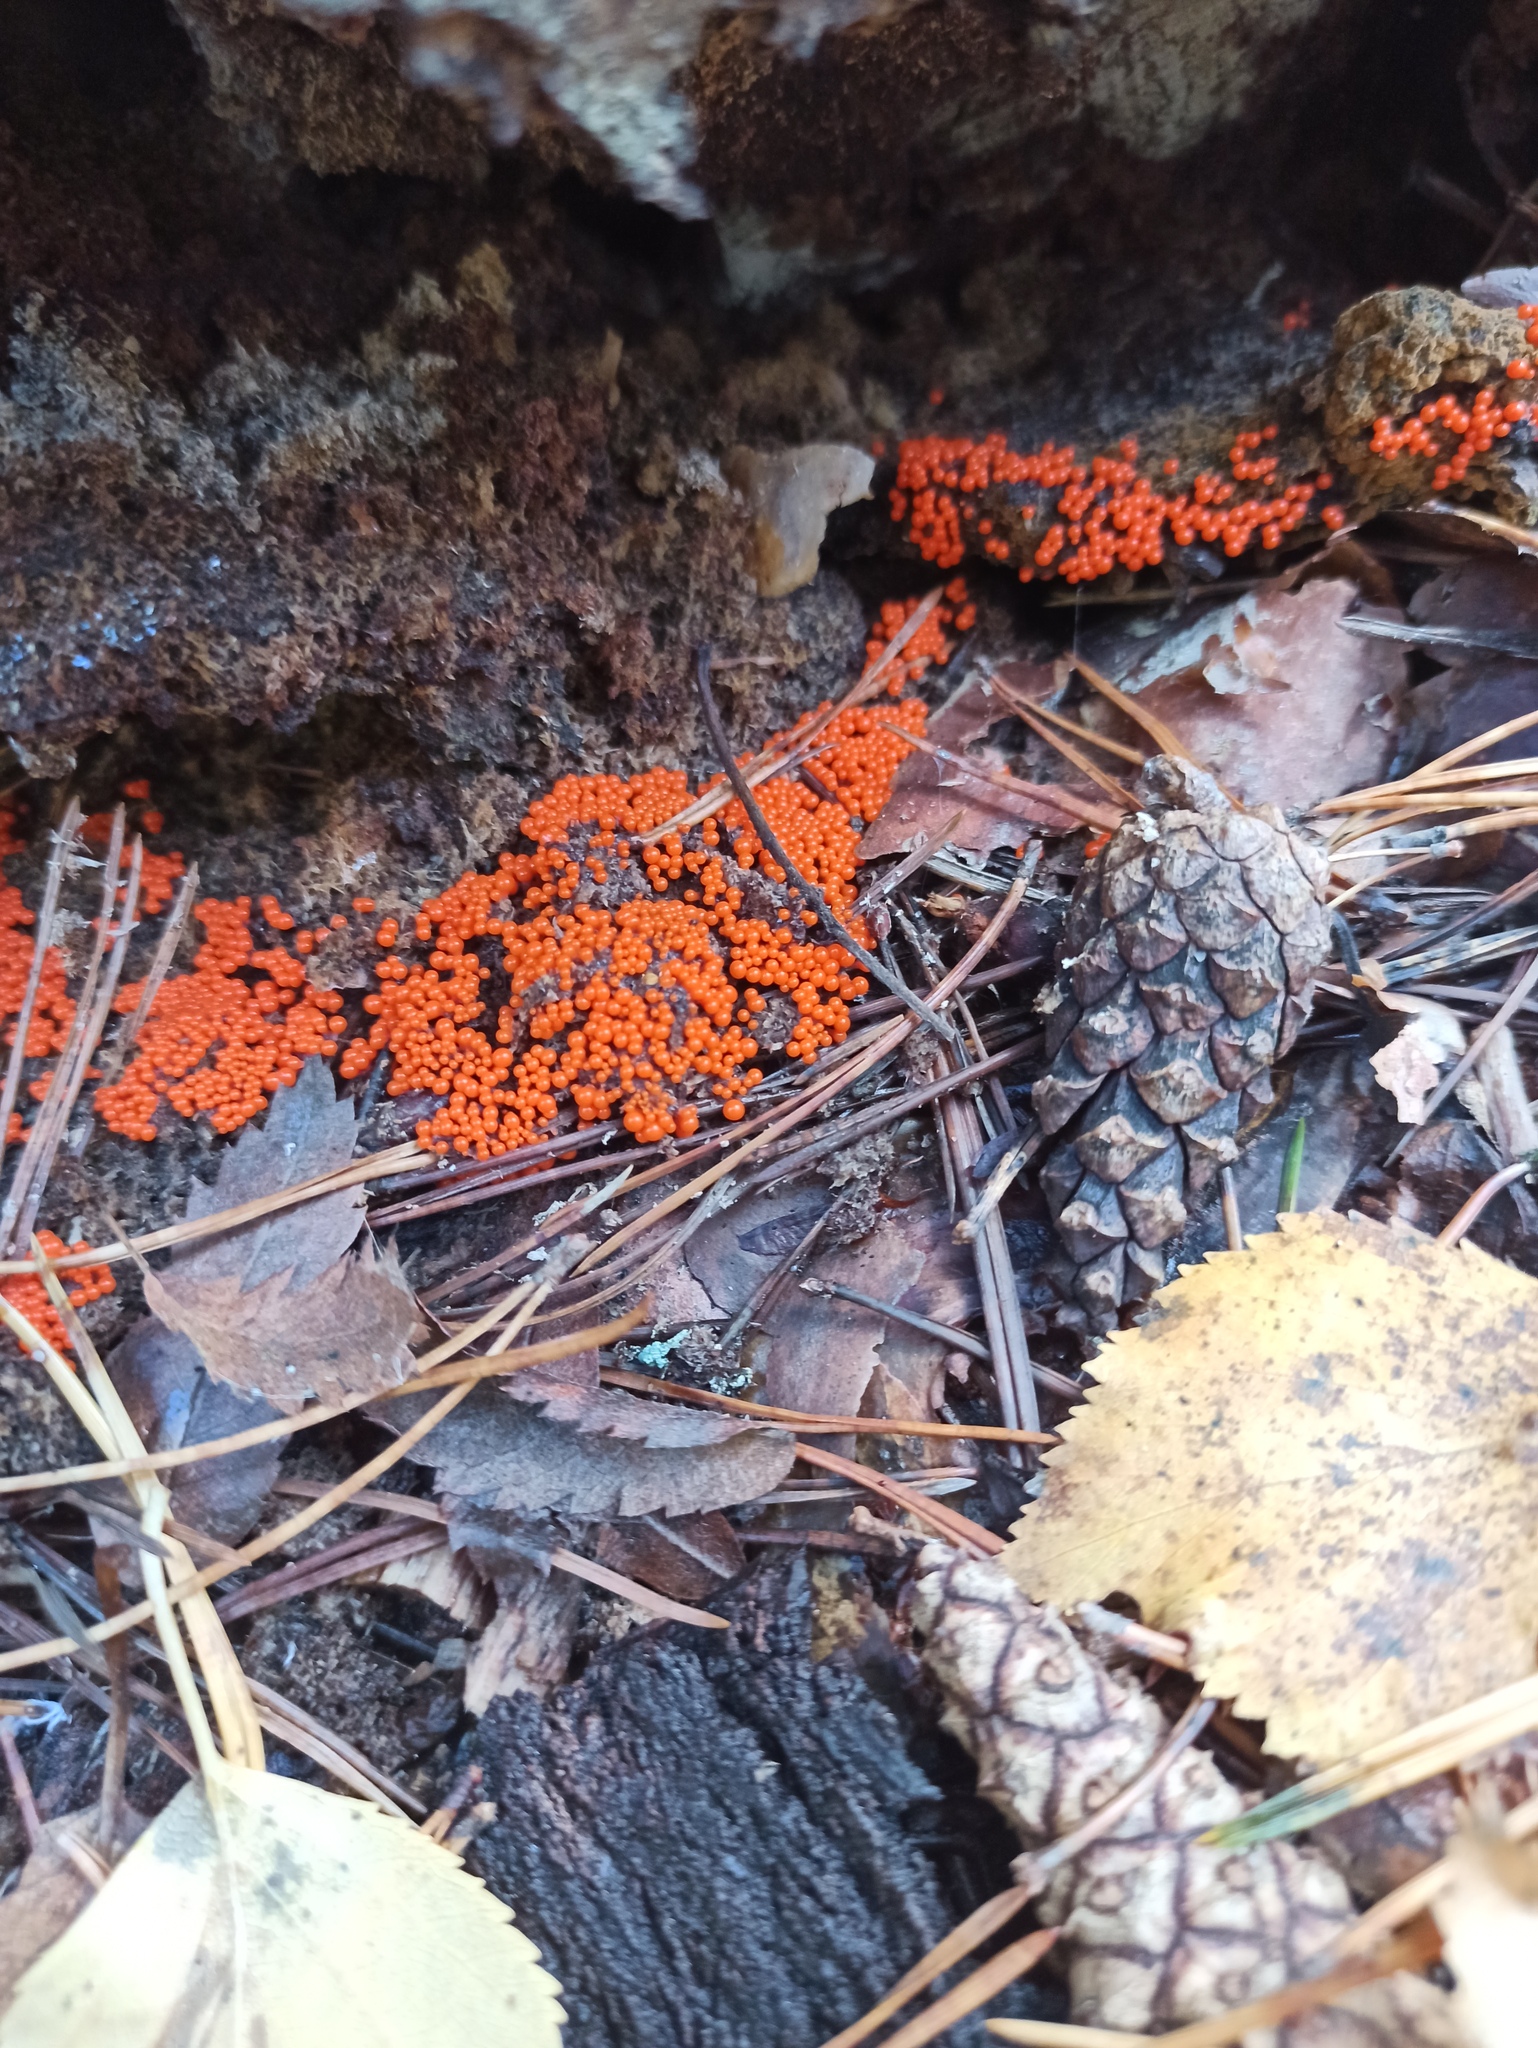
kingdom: Protozoa
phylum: Mycetozoa
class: Myxomycetes
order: Trichiales
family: Trichiaceae
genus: Trichia
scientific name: Trichia varia
